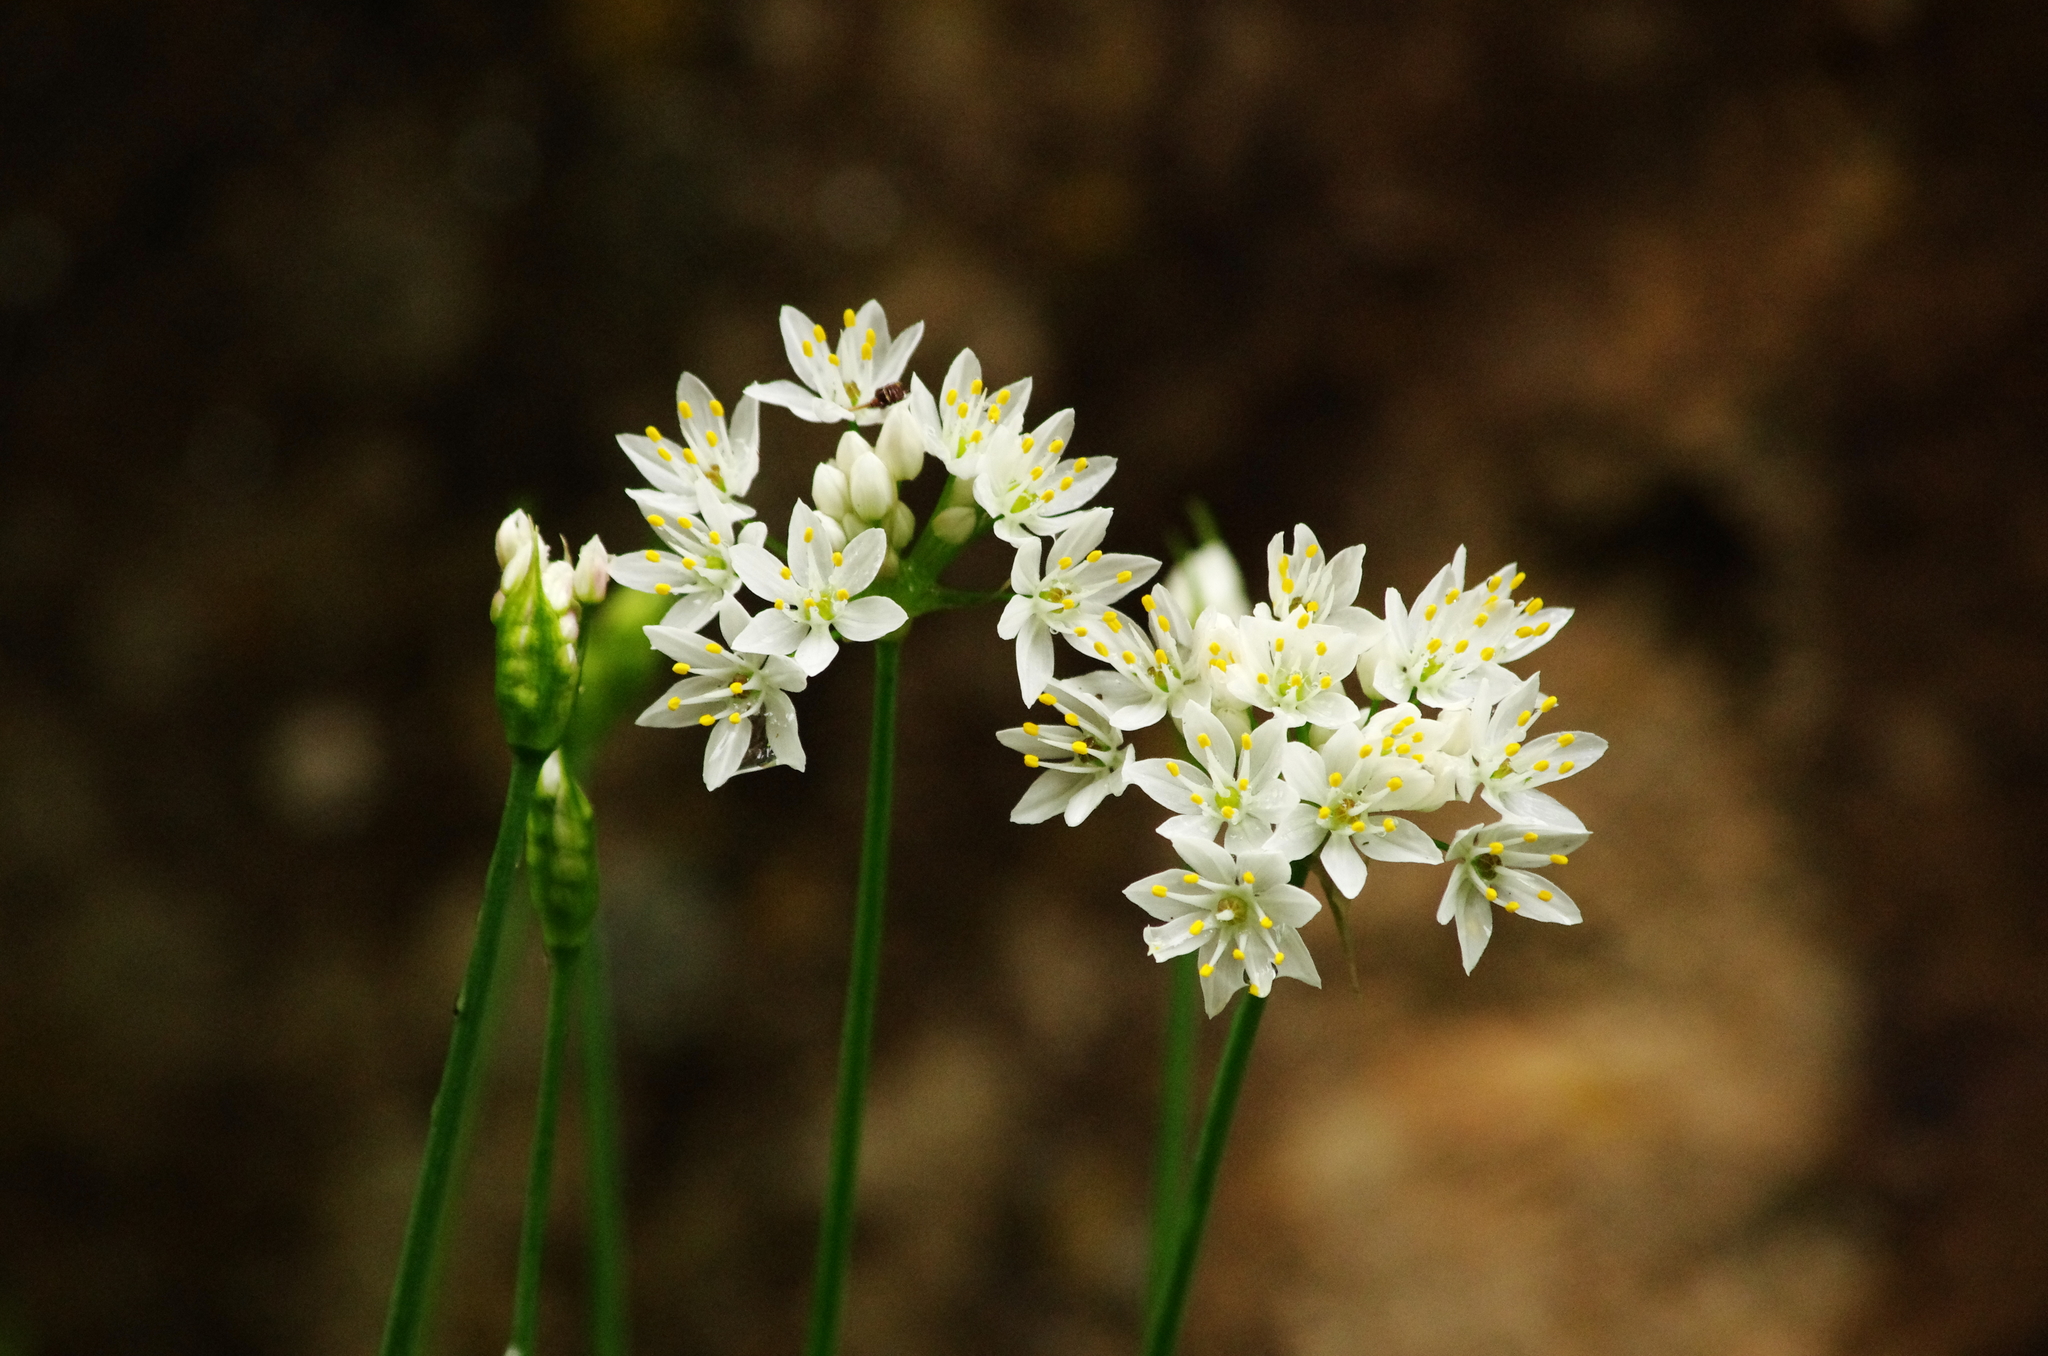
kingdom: Plantae
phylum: Tracheophyta
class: Liliopsida
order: Asparagales
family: Amaryllidaceae
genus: Allium
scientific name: Allium canariense
